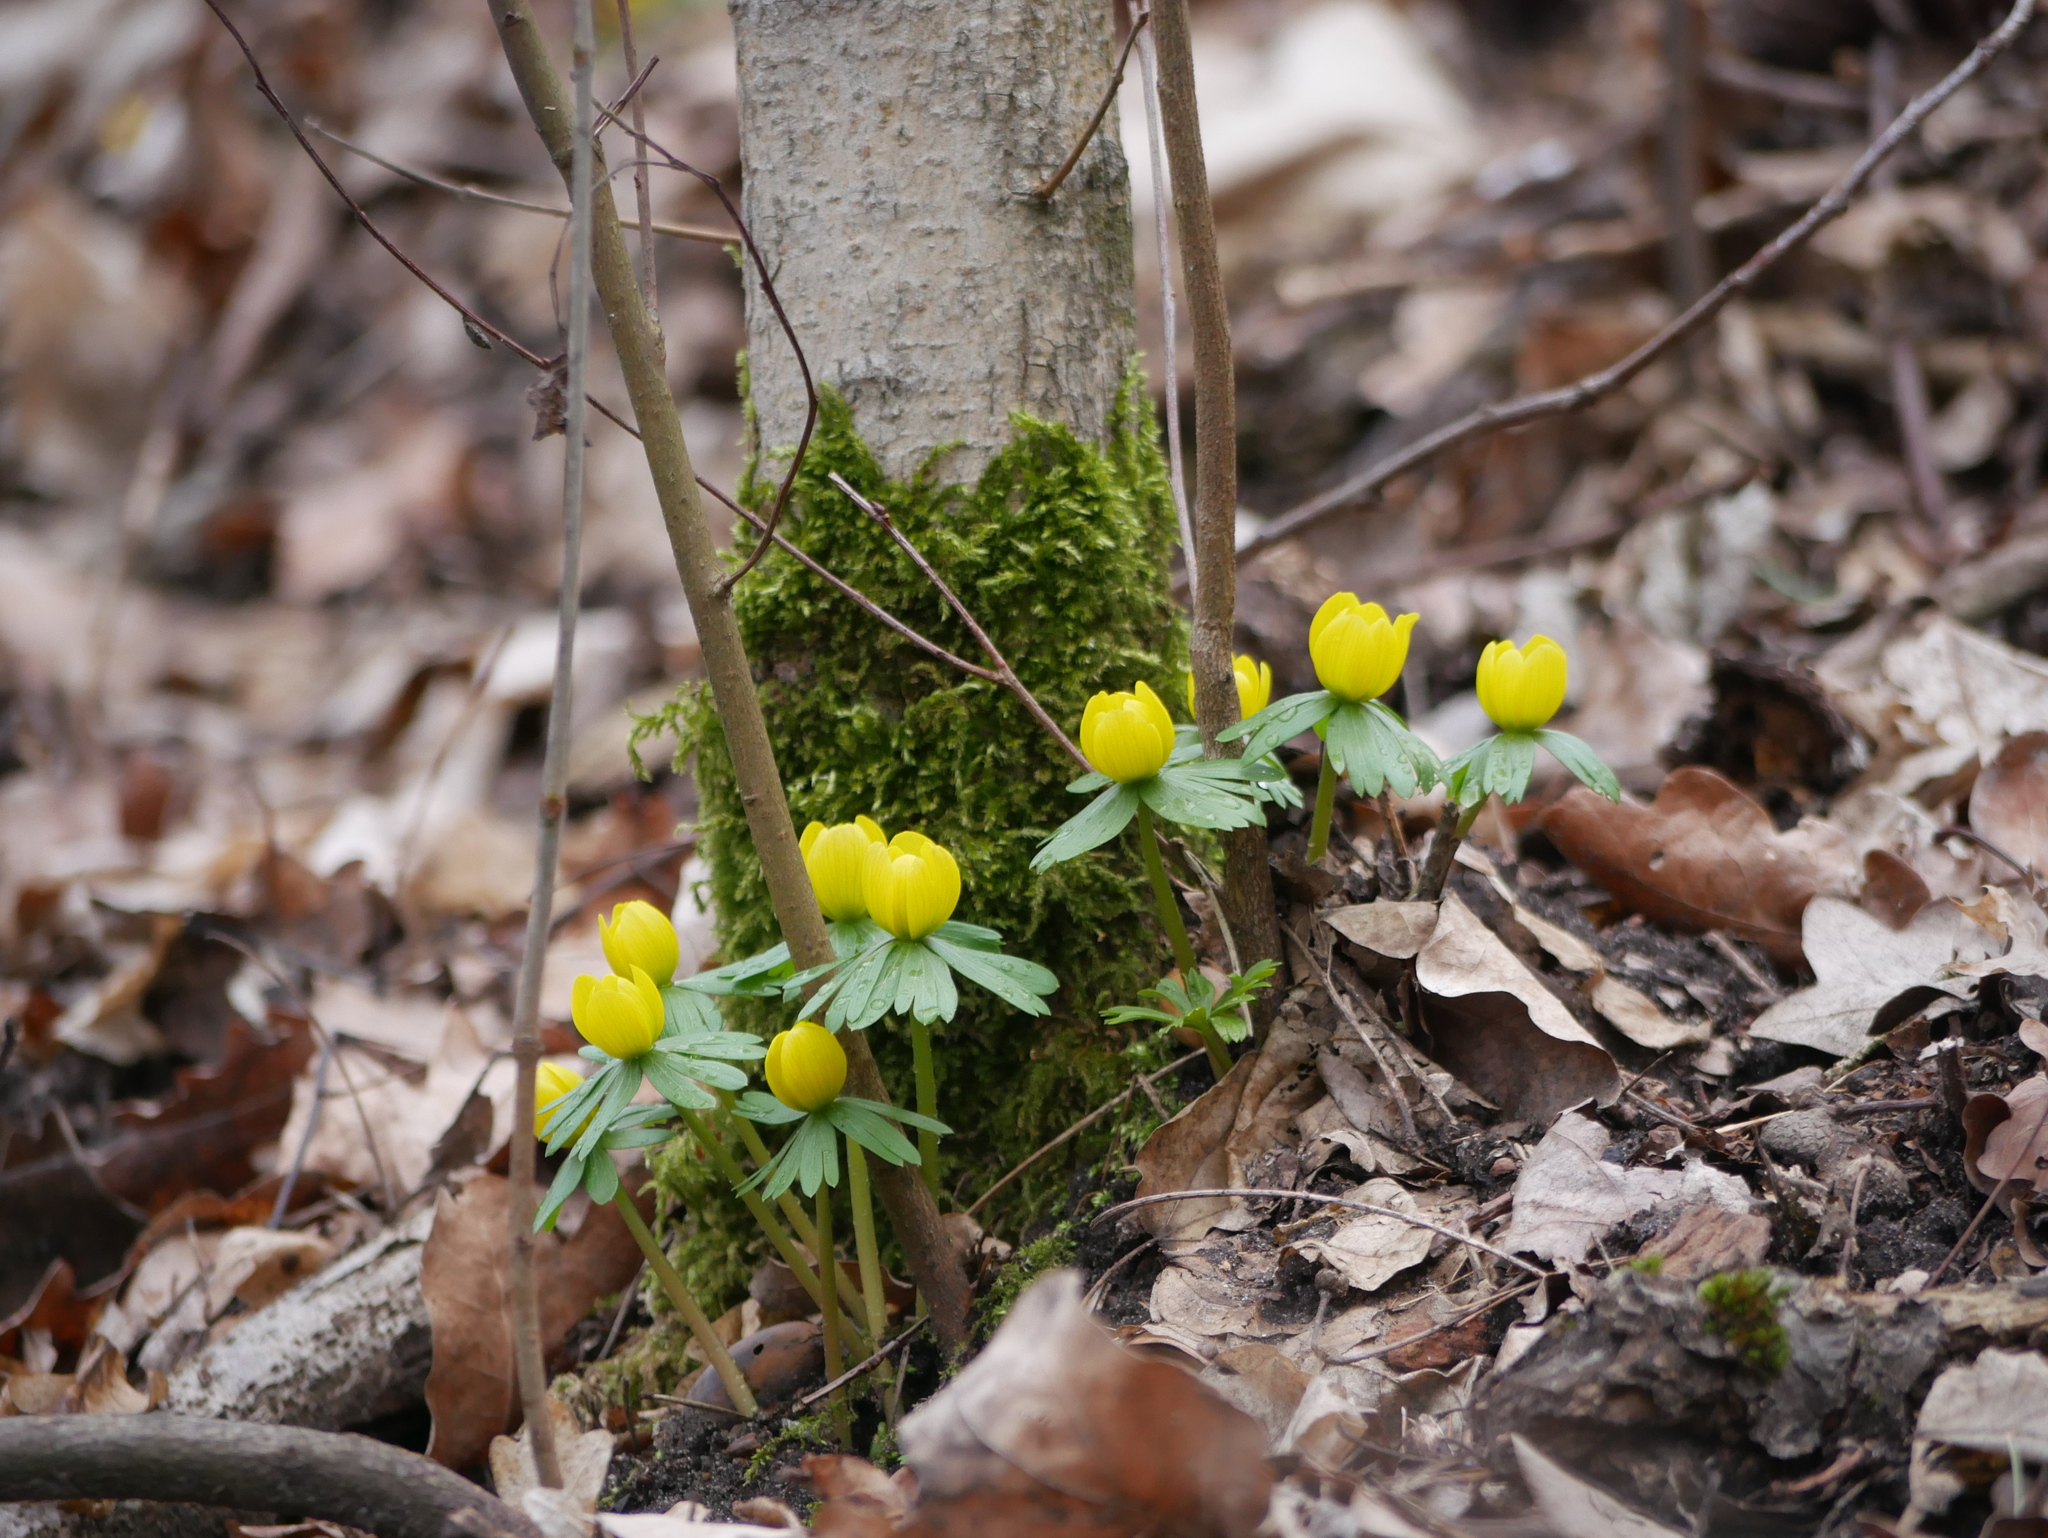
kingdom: Plantae
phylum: Tracheophyta
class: Magnoliopsida
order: Ranunculales
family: Ranunculaceae
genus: Eranthis
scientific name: Eranthis hyemalis
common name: Winter aconite
